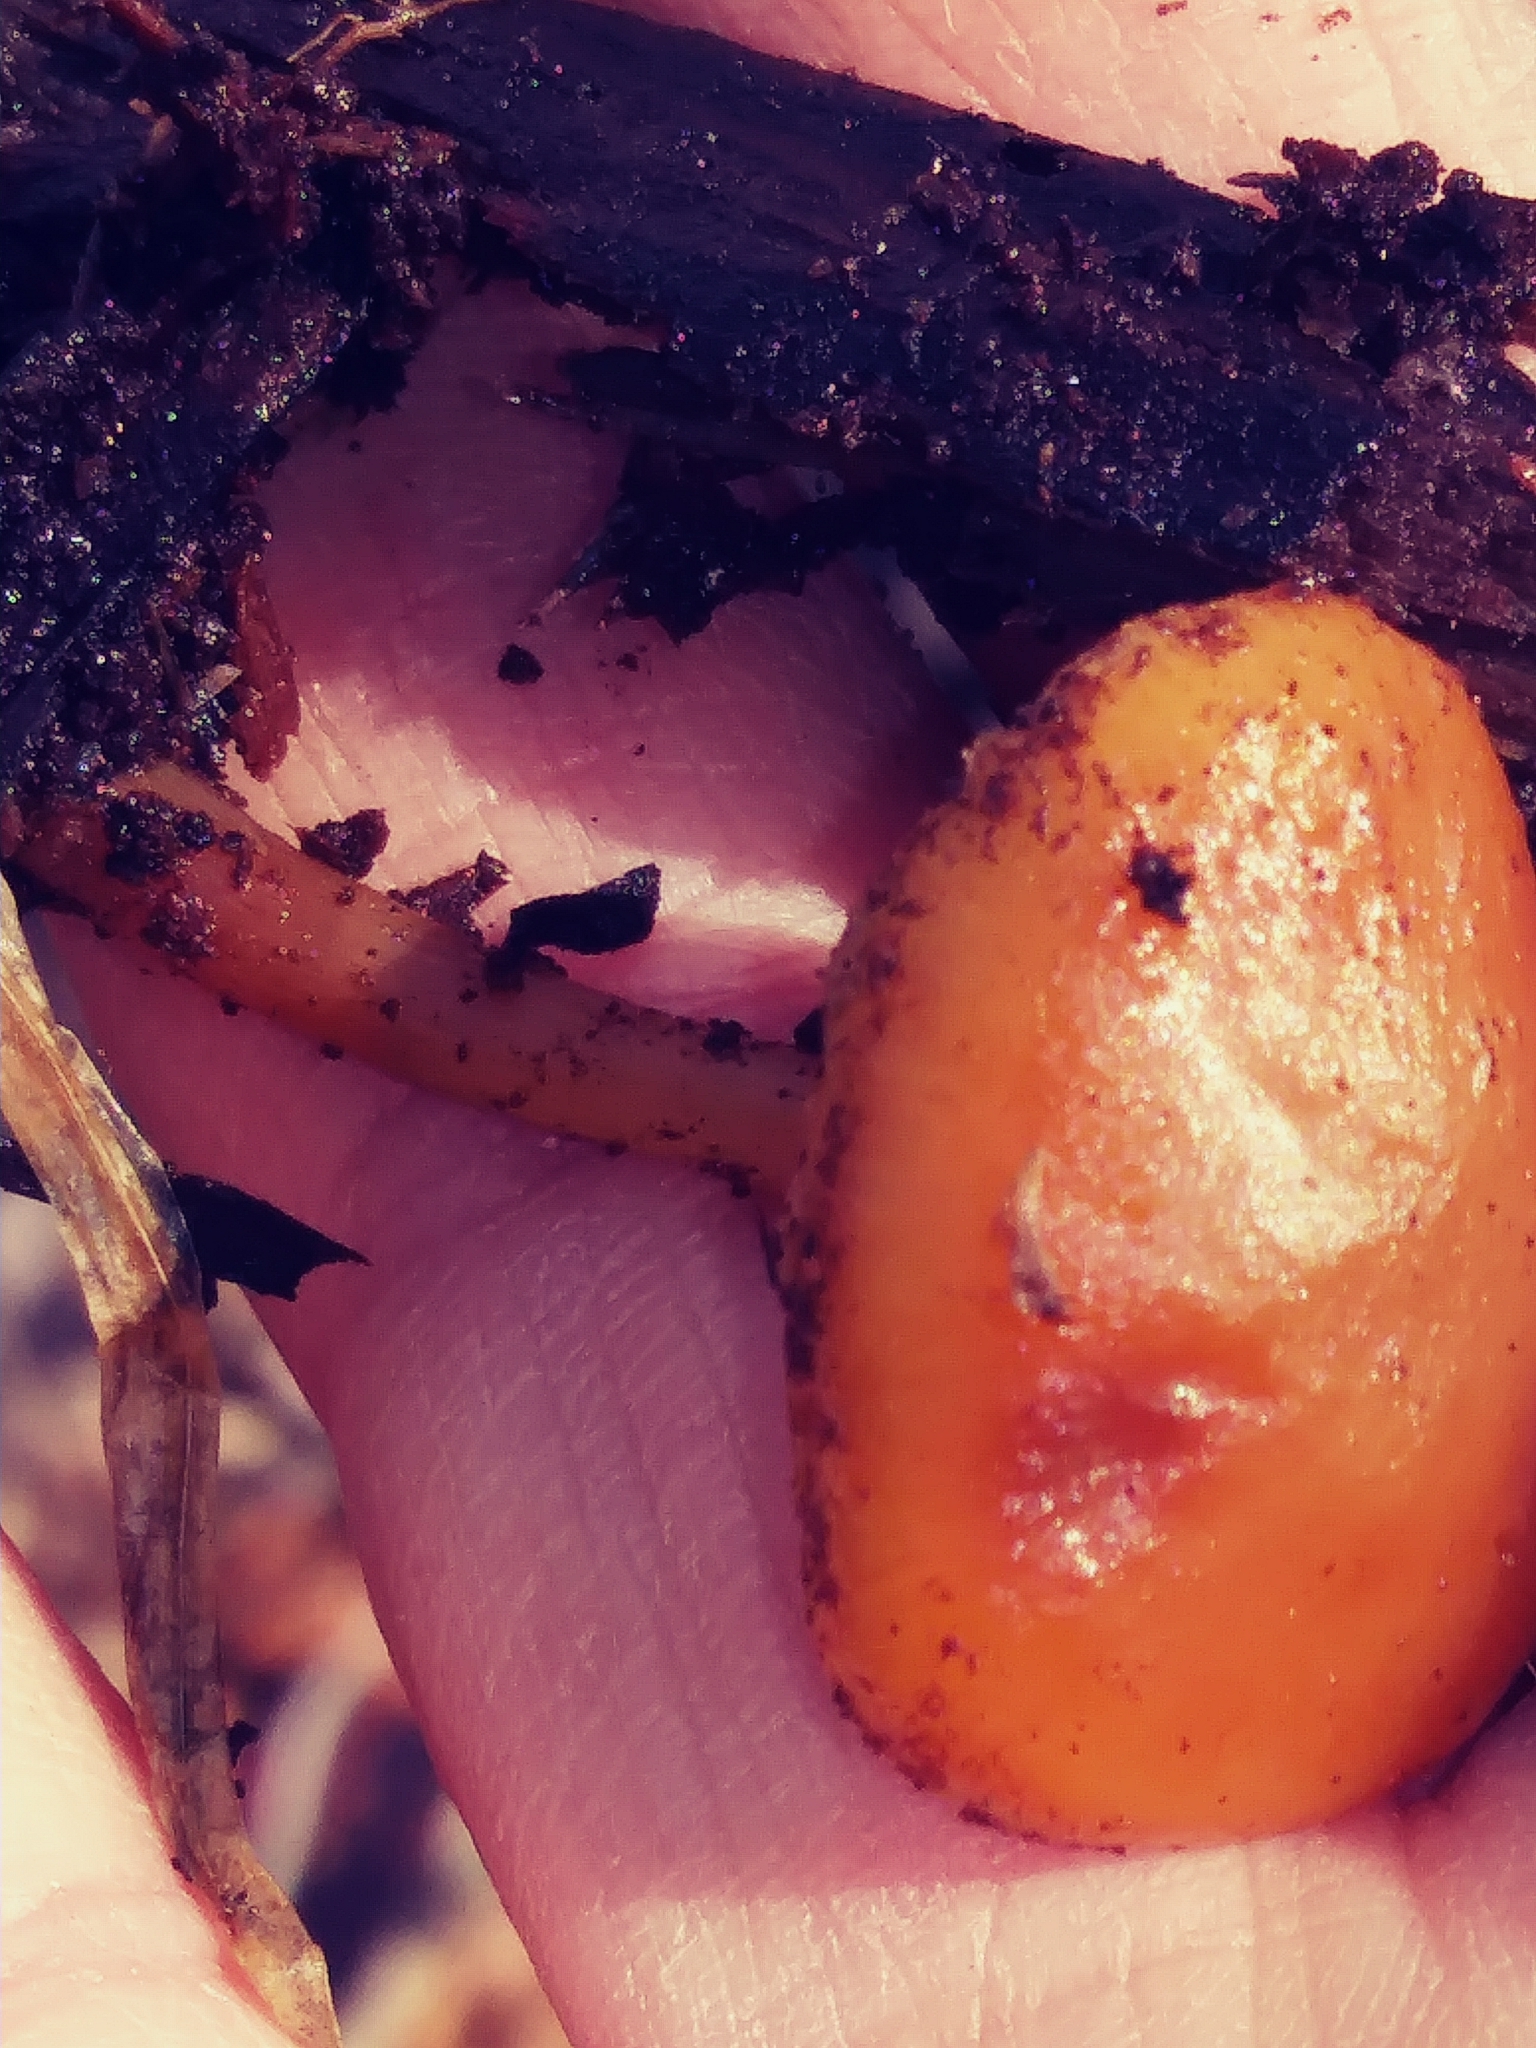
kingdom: Fungi
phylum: Basidiomycota
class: Agaricomycetes
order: Agaricales
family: Hymenogastraceae
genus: Galerina
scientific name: Galerina marginata
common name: Funeral bell
